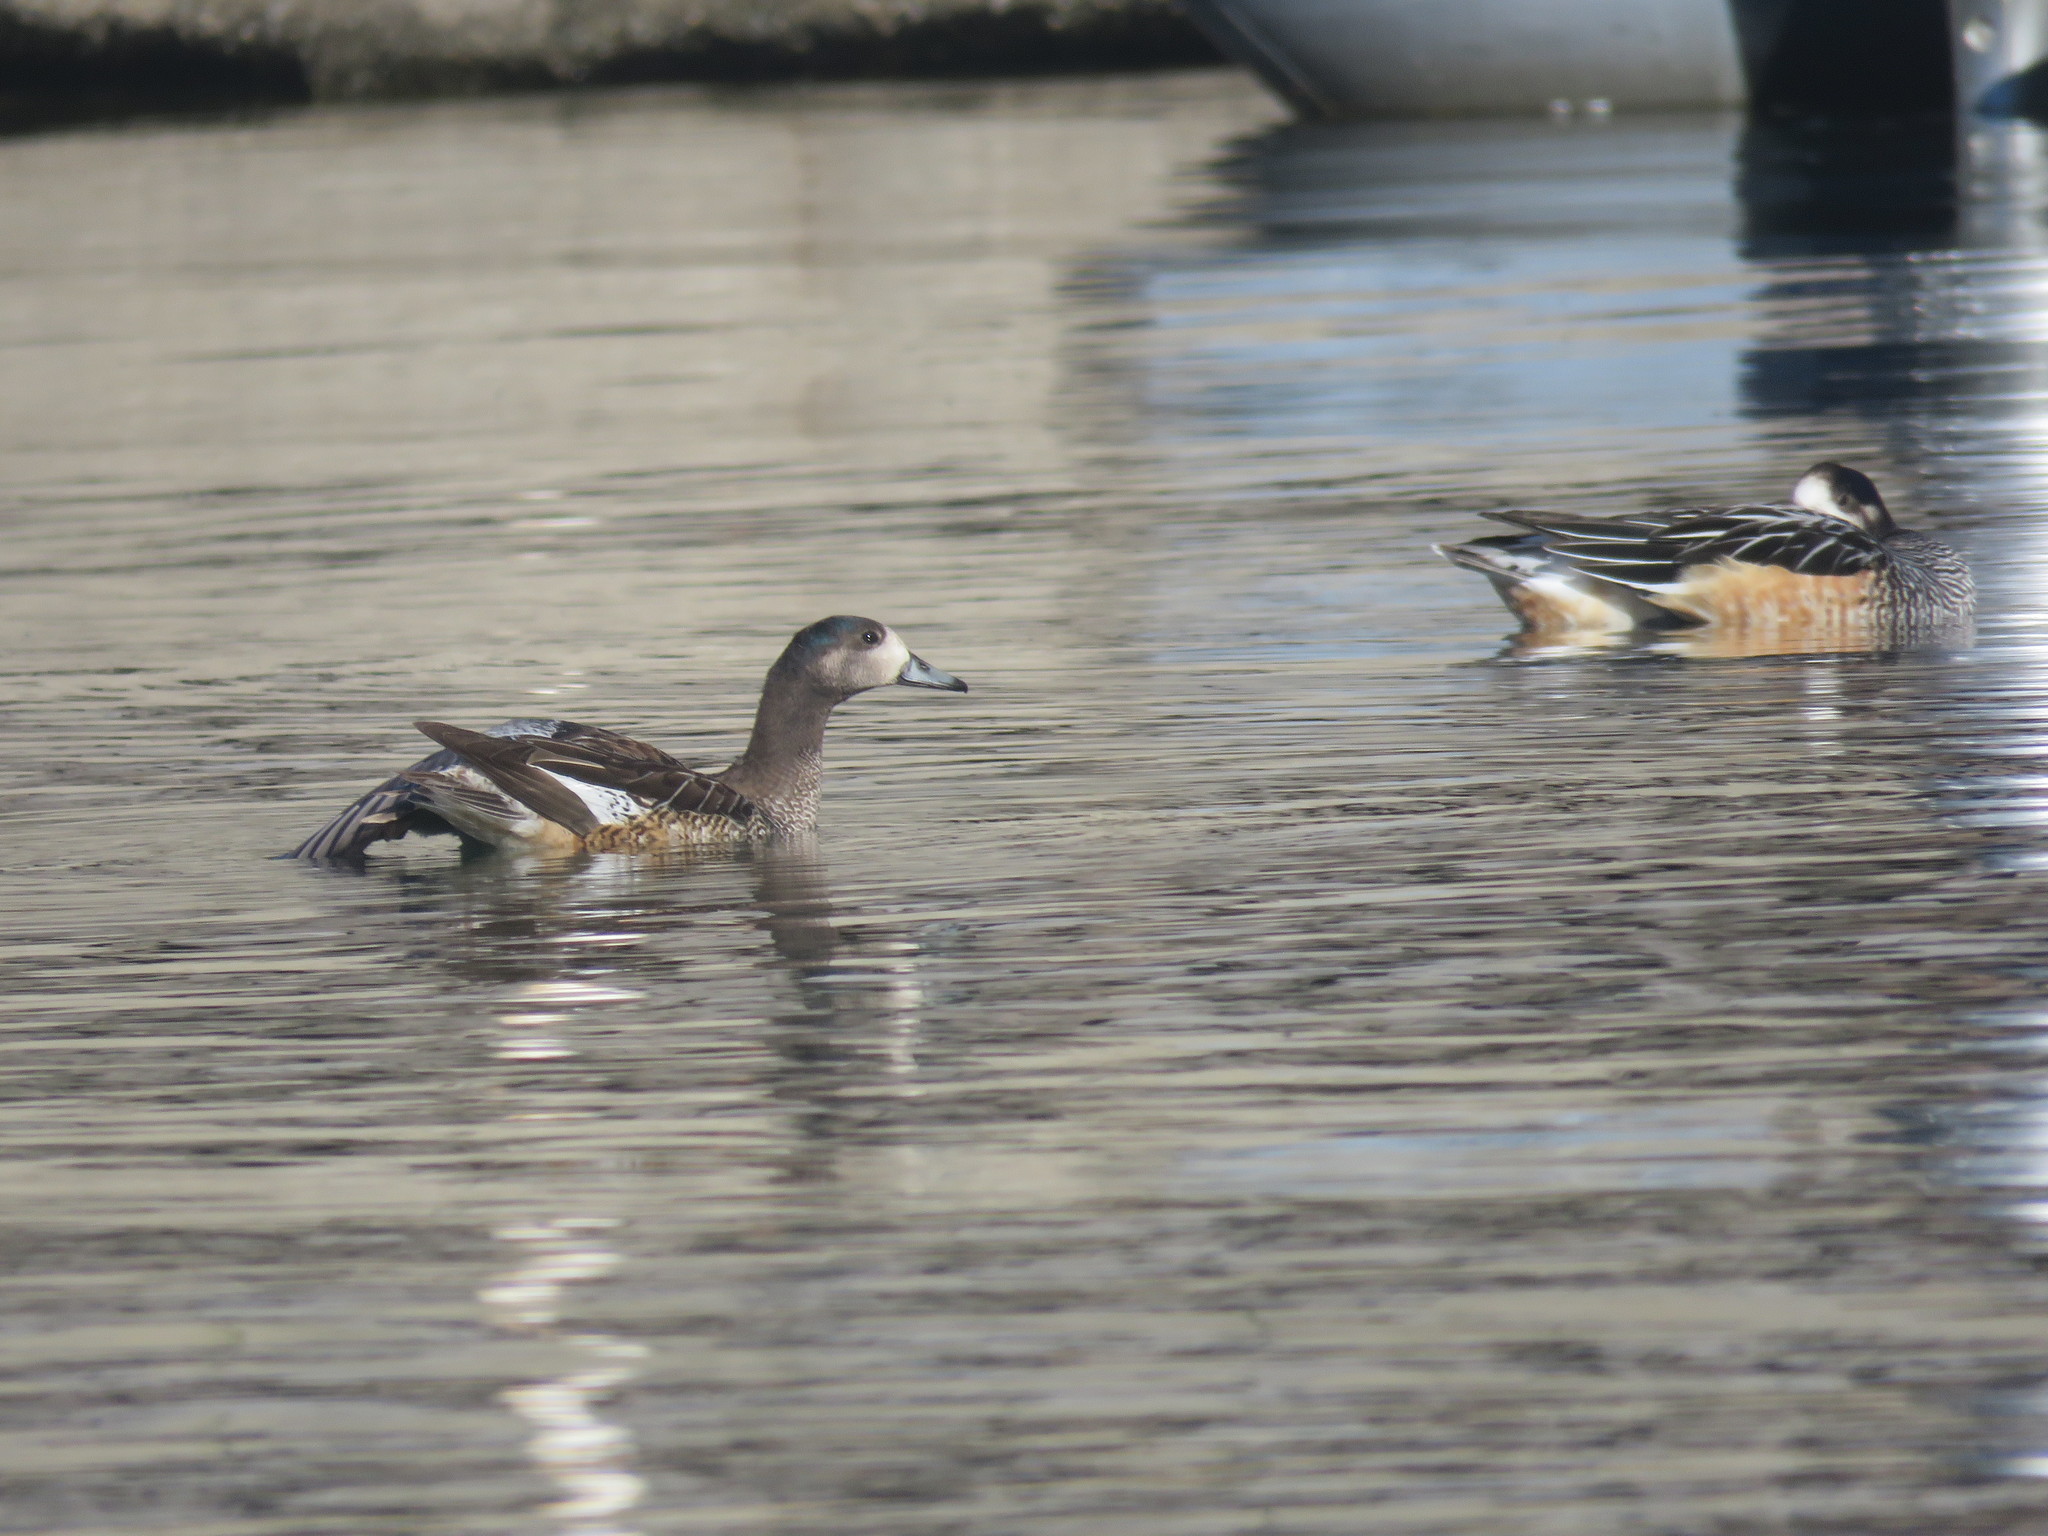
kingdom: Animalia
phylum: Chordata
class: Aves
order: Anseriformes
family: Anatidae
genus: Mareca
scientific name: Mareca sibilatrix
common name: Chiloe wigeon
